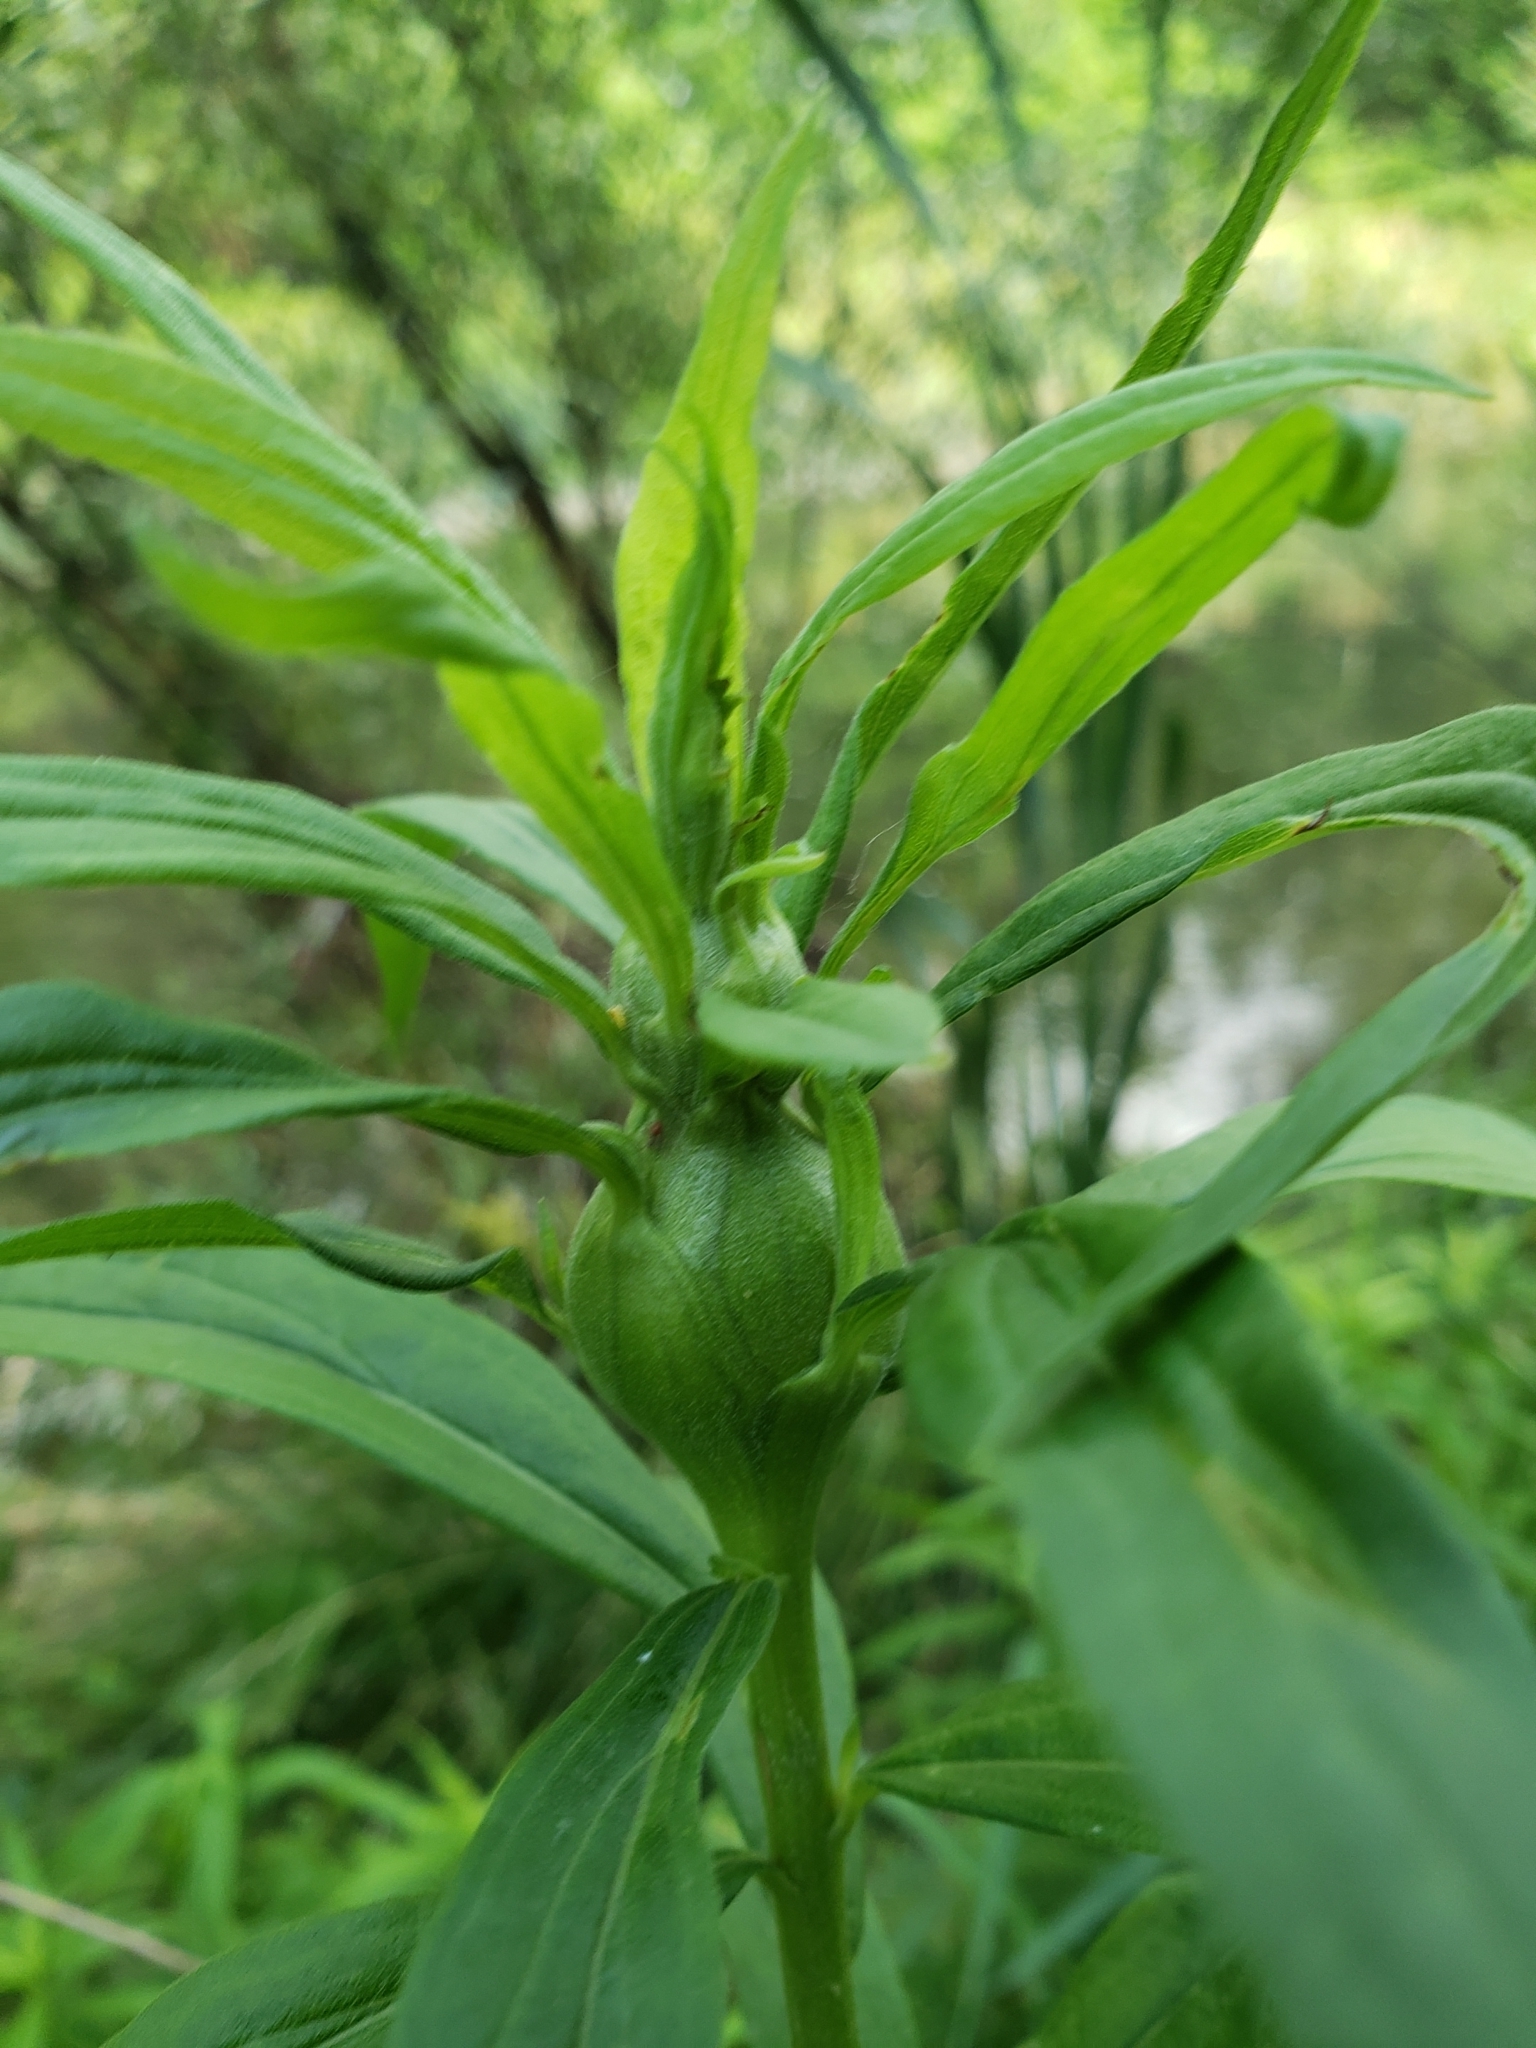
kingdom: Animalia
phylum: Arthropoda
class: Insecta
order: Diptera
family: Tephritidae
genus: Eurosta
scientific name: Eurosta solidaginis
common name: Goldenrod gall fly
